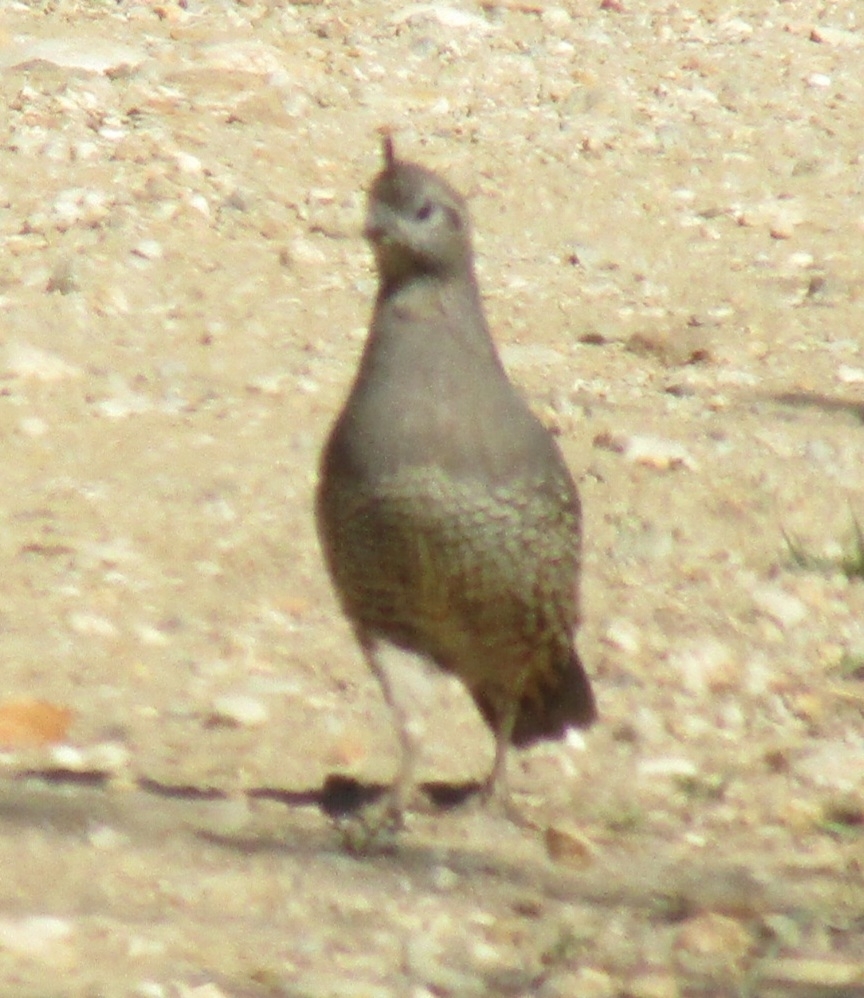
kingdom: Animalia
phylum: Chordata
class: Aves
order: Galliformes
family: Odontophoridae
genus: Callipepla
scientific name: Callipepla californica
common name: California quail
